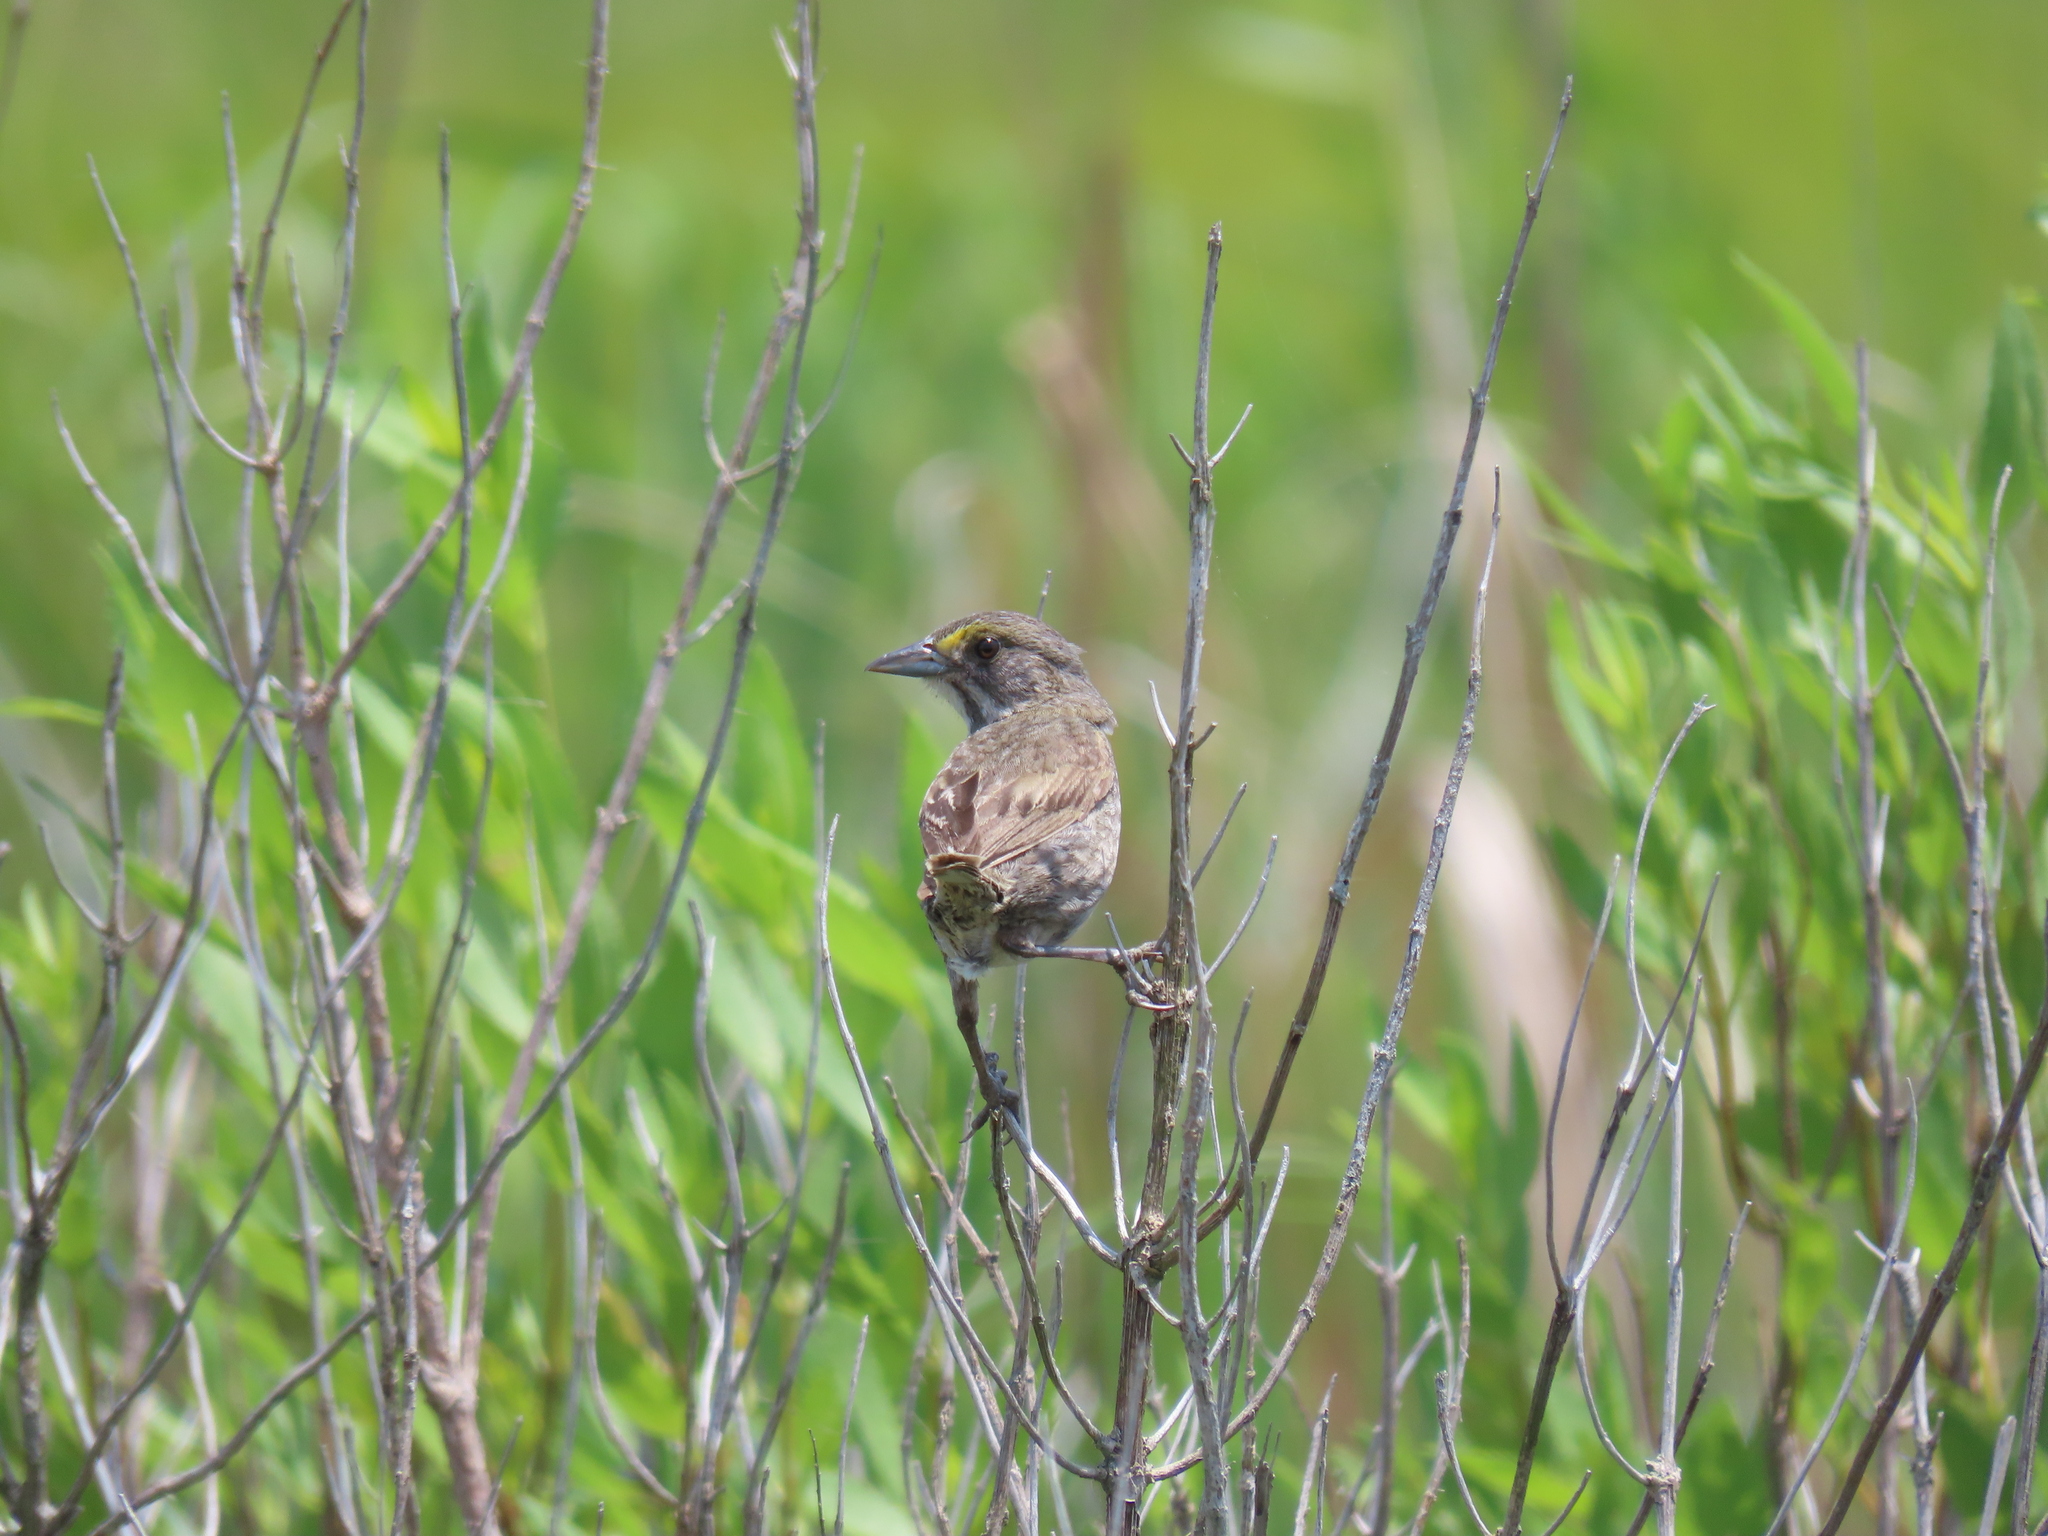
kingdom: Animalia
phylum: Chordata
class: Aves
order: Passeriformes
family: Passerellidae
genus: Ammospiza
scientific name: Ammospiza maritima
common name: Seaside sparrow
